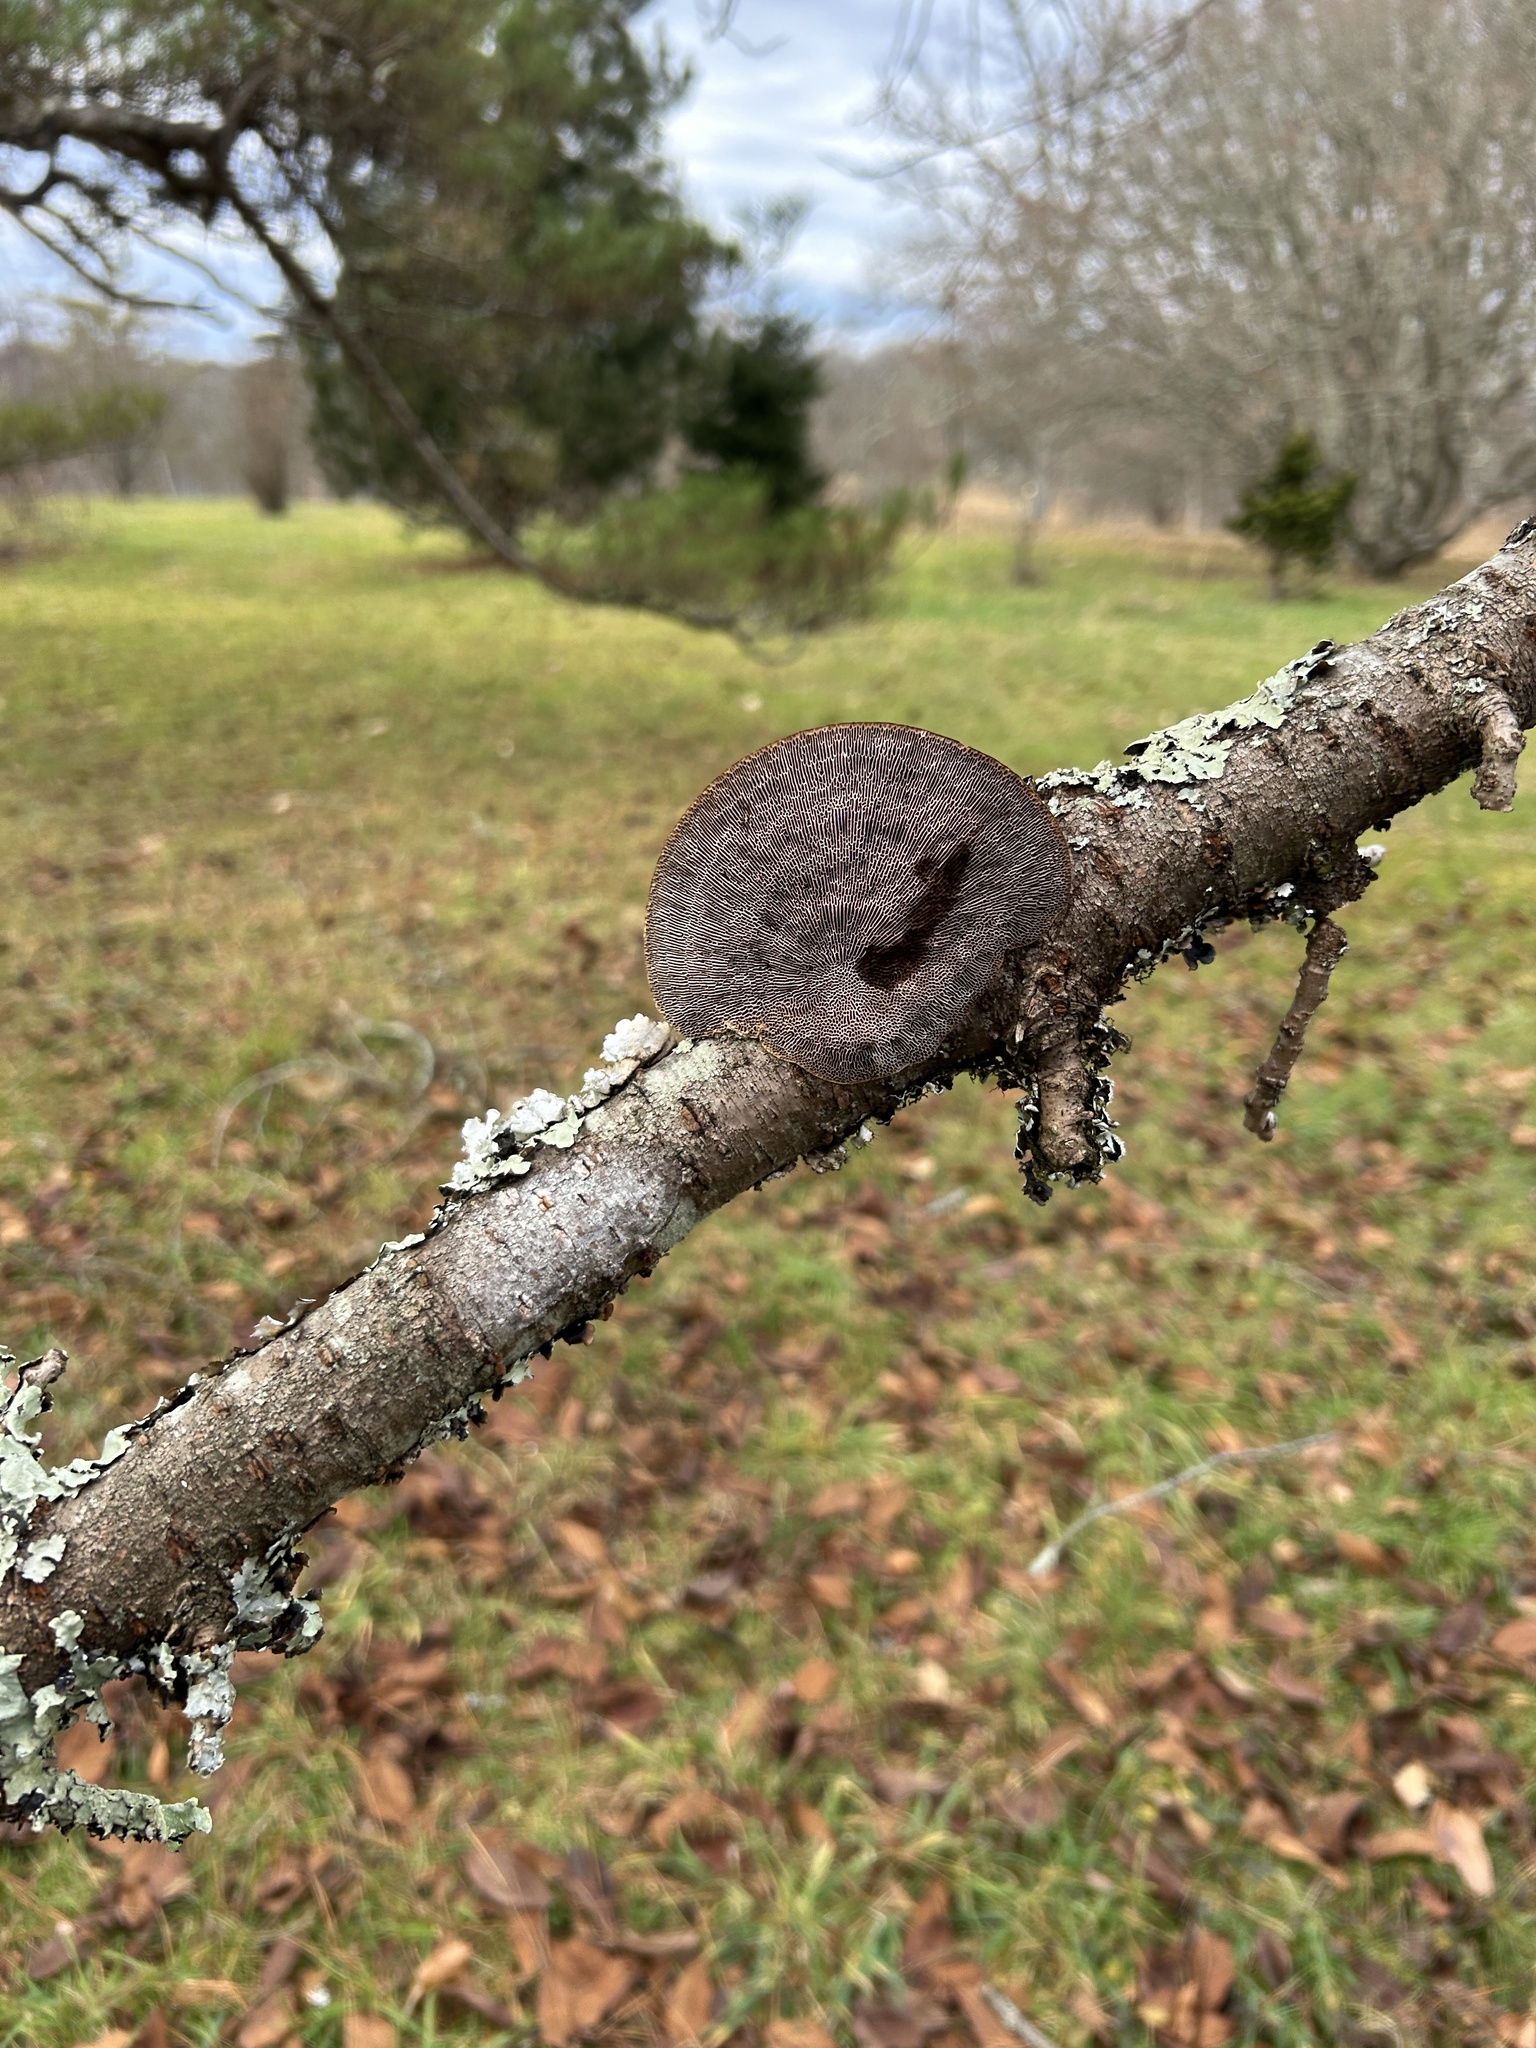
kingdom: Fungi
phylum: Basidiomycota
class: Agaricomycetes
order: Polyporales
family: Polyporaceae
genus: Daedaleopsis
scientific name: Daedaleopsis confragosa
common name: Blushing bracket
